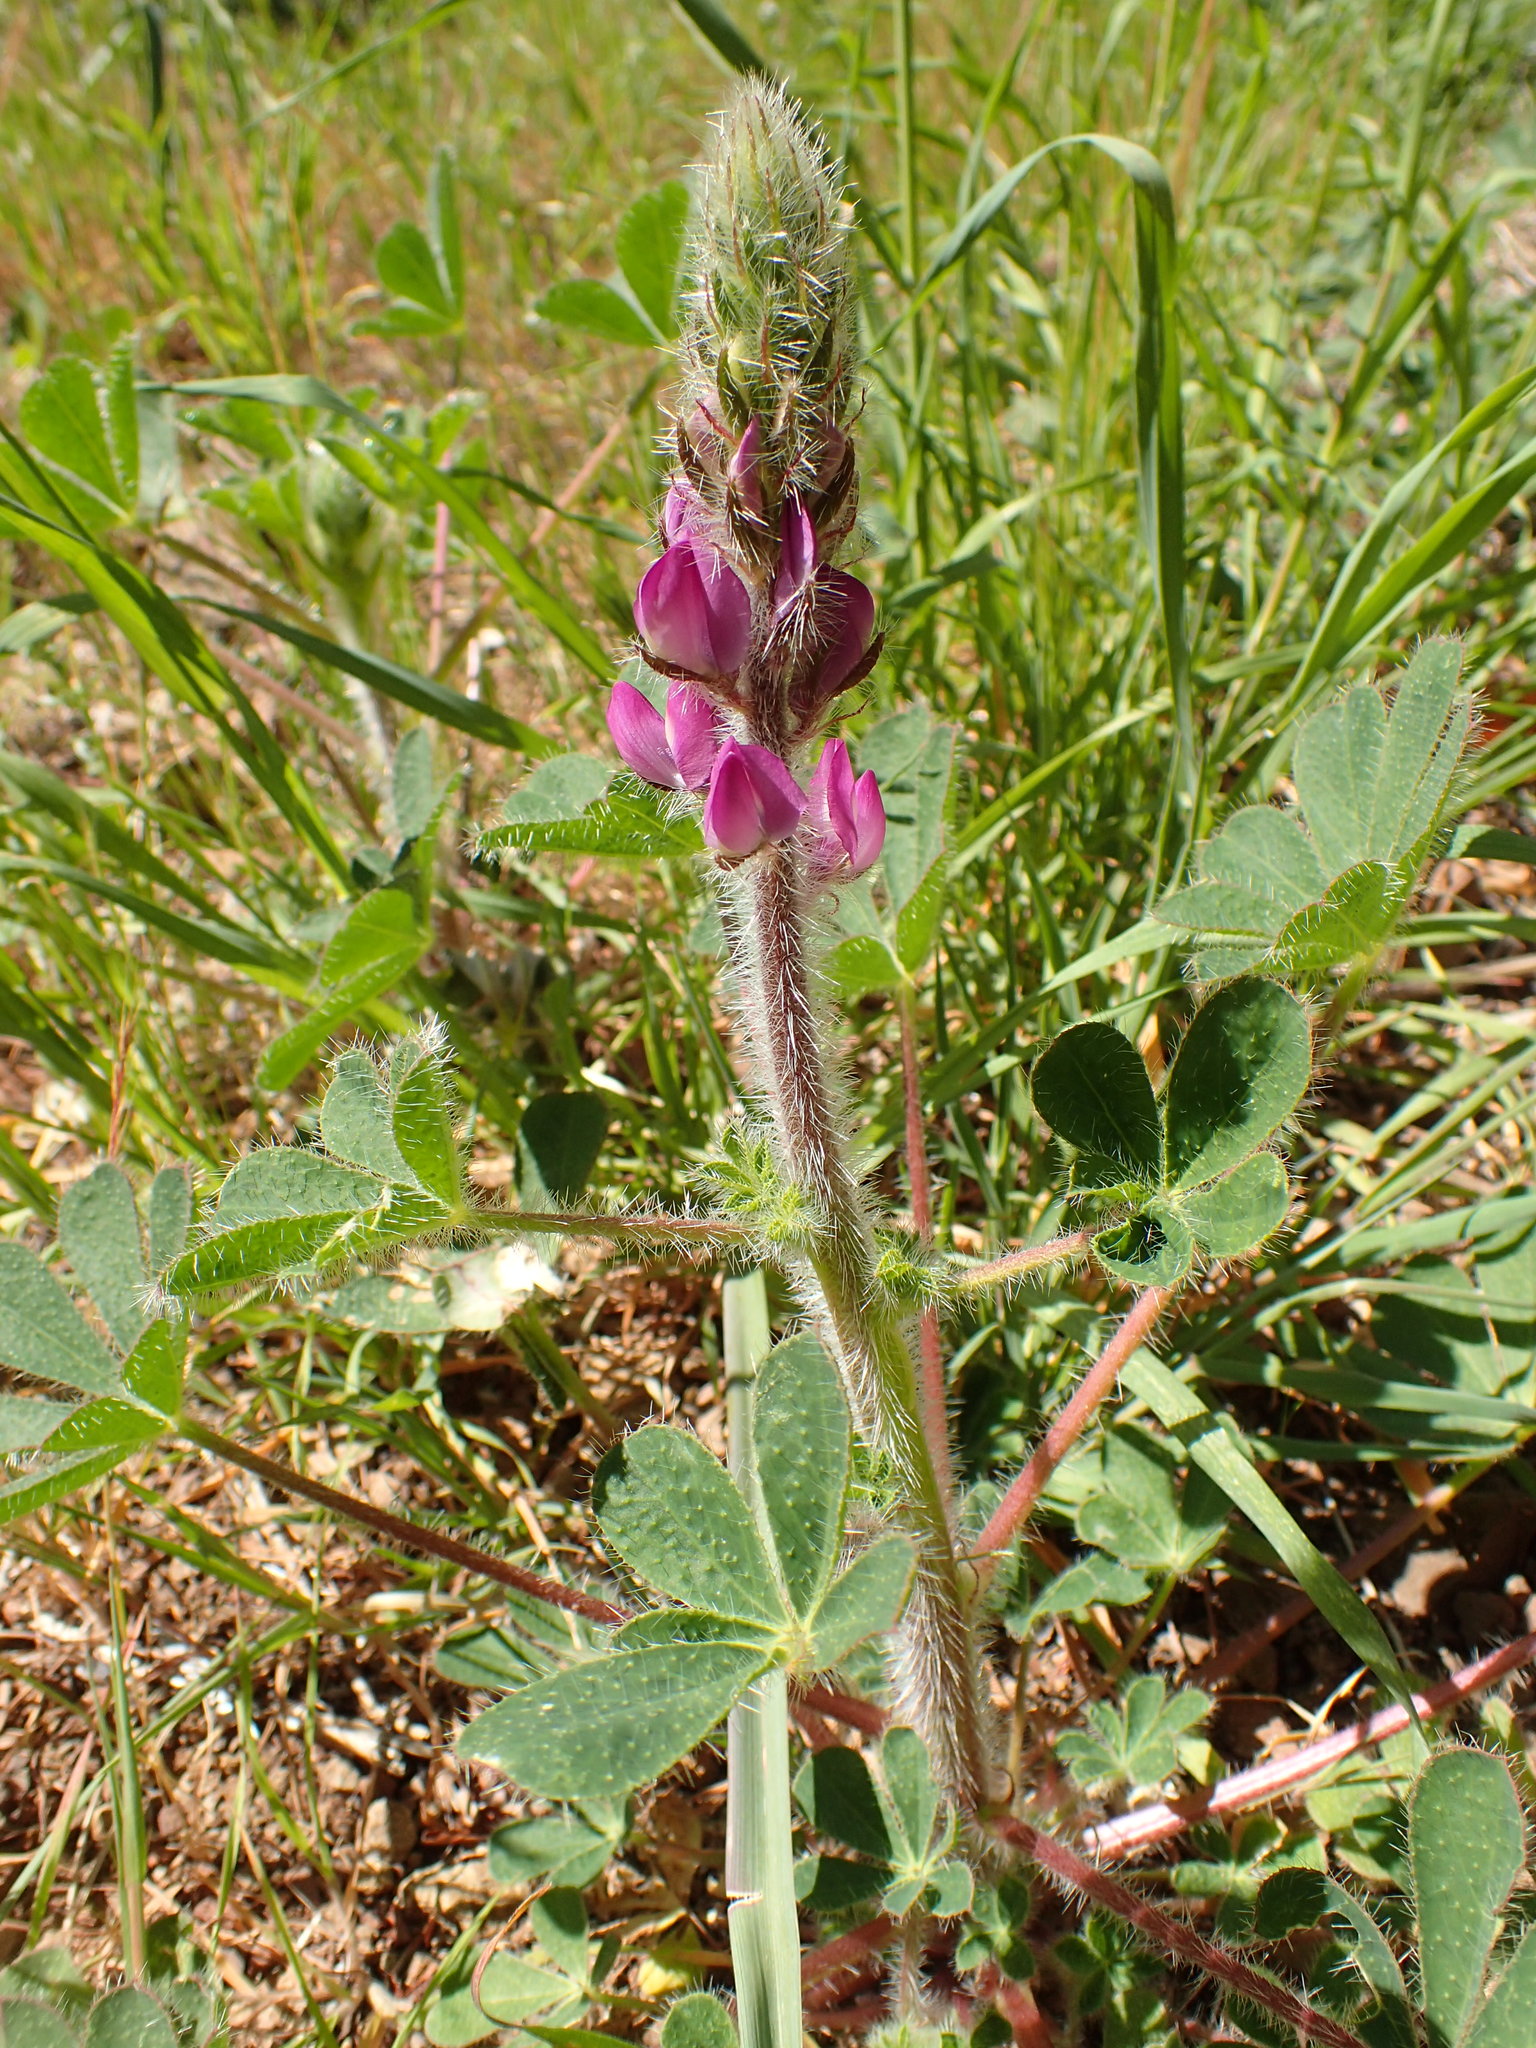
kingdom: Plantae
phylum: Tracheophyta
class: Magnoliopsida
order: Fabales
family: Fabaceae
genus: Lupinus
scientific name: Lupinus hirsutissimus
